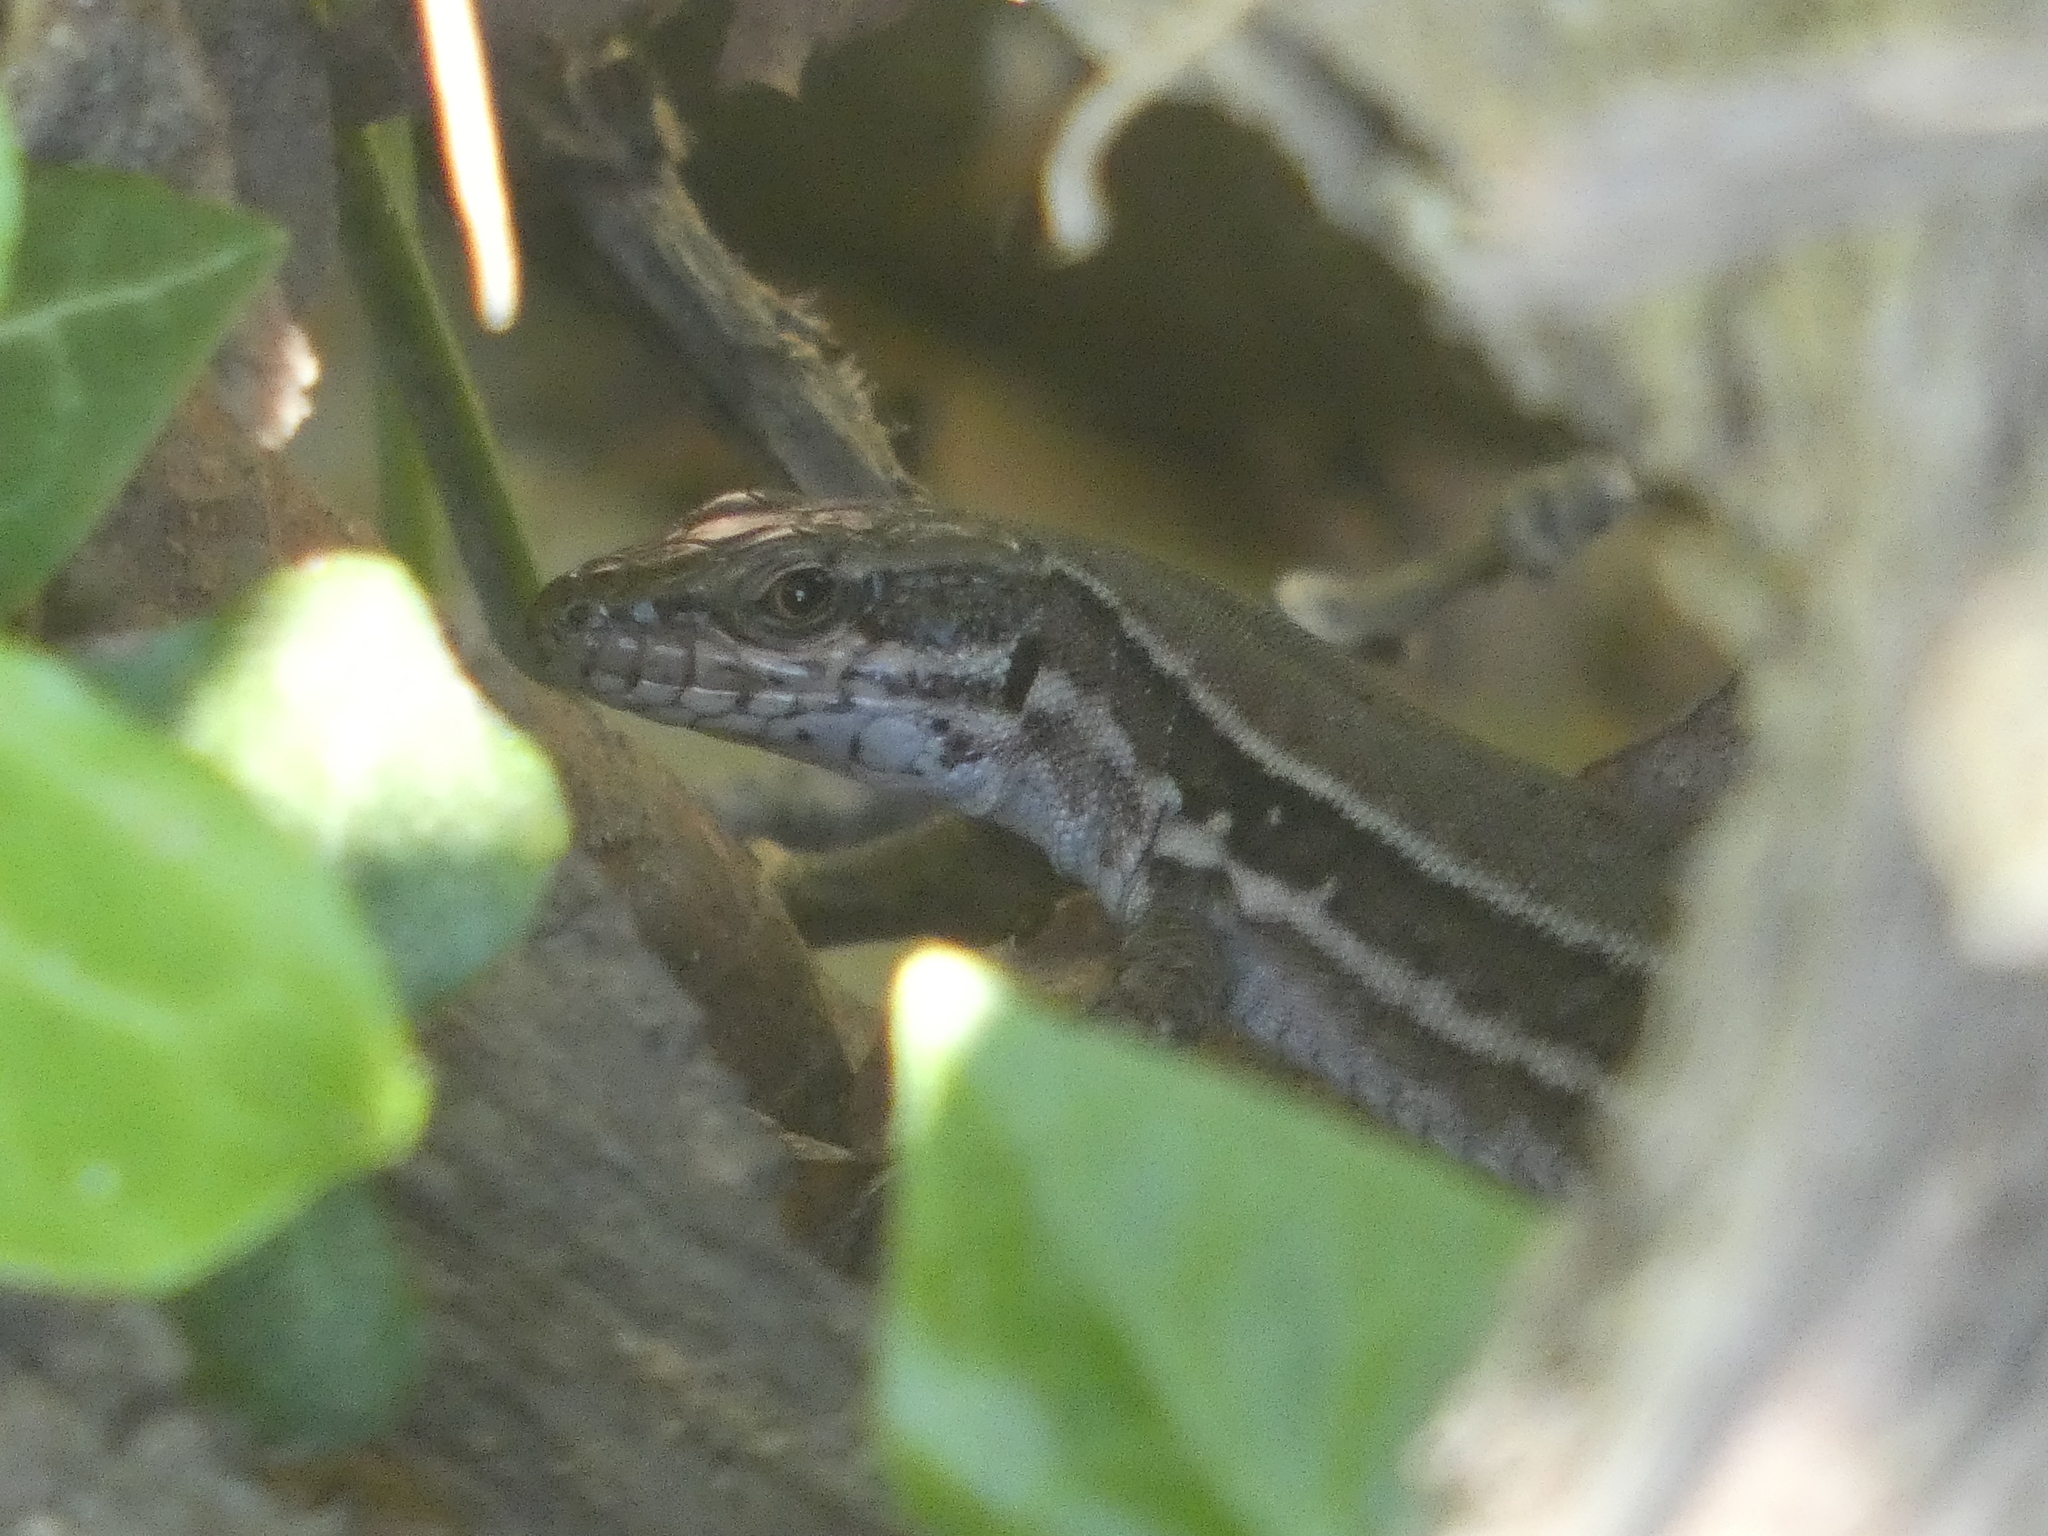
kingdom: Animalia
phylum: Chordata
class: Squamata
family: Lacertidae
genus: Podarcis
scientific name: Podarcis muralis
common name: Common wall lizard
